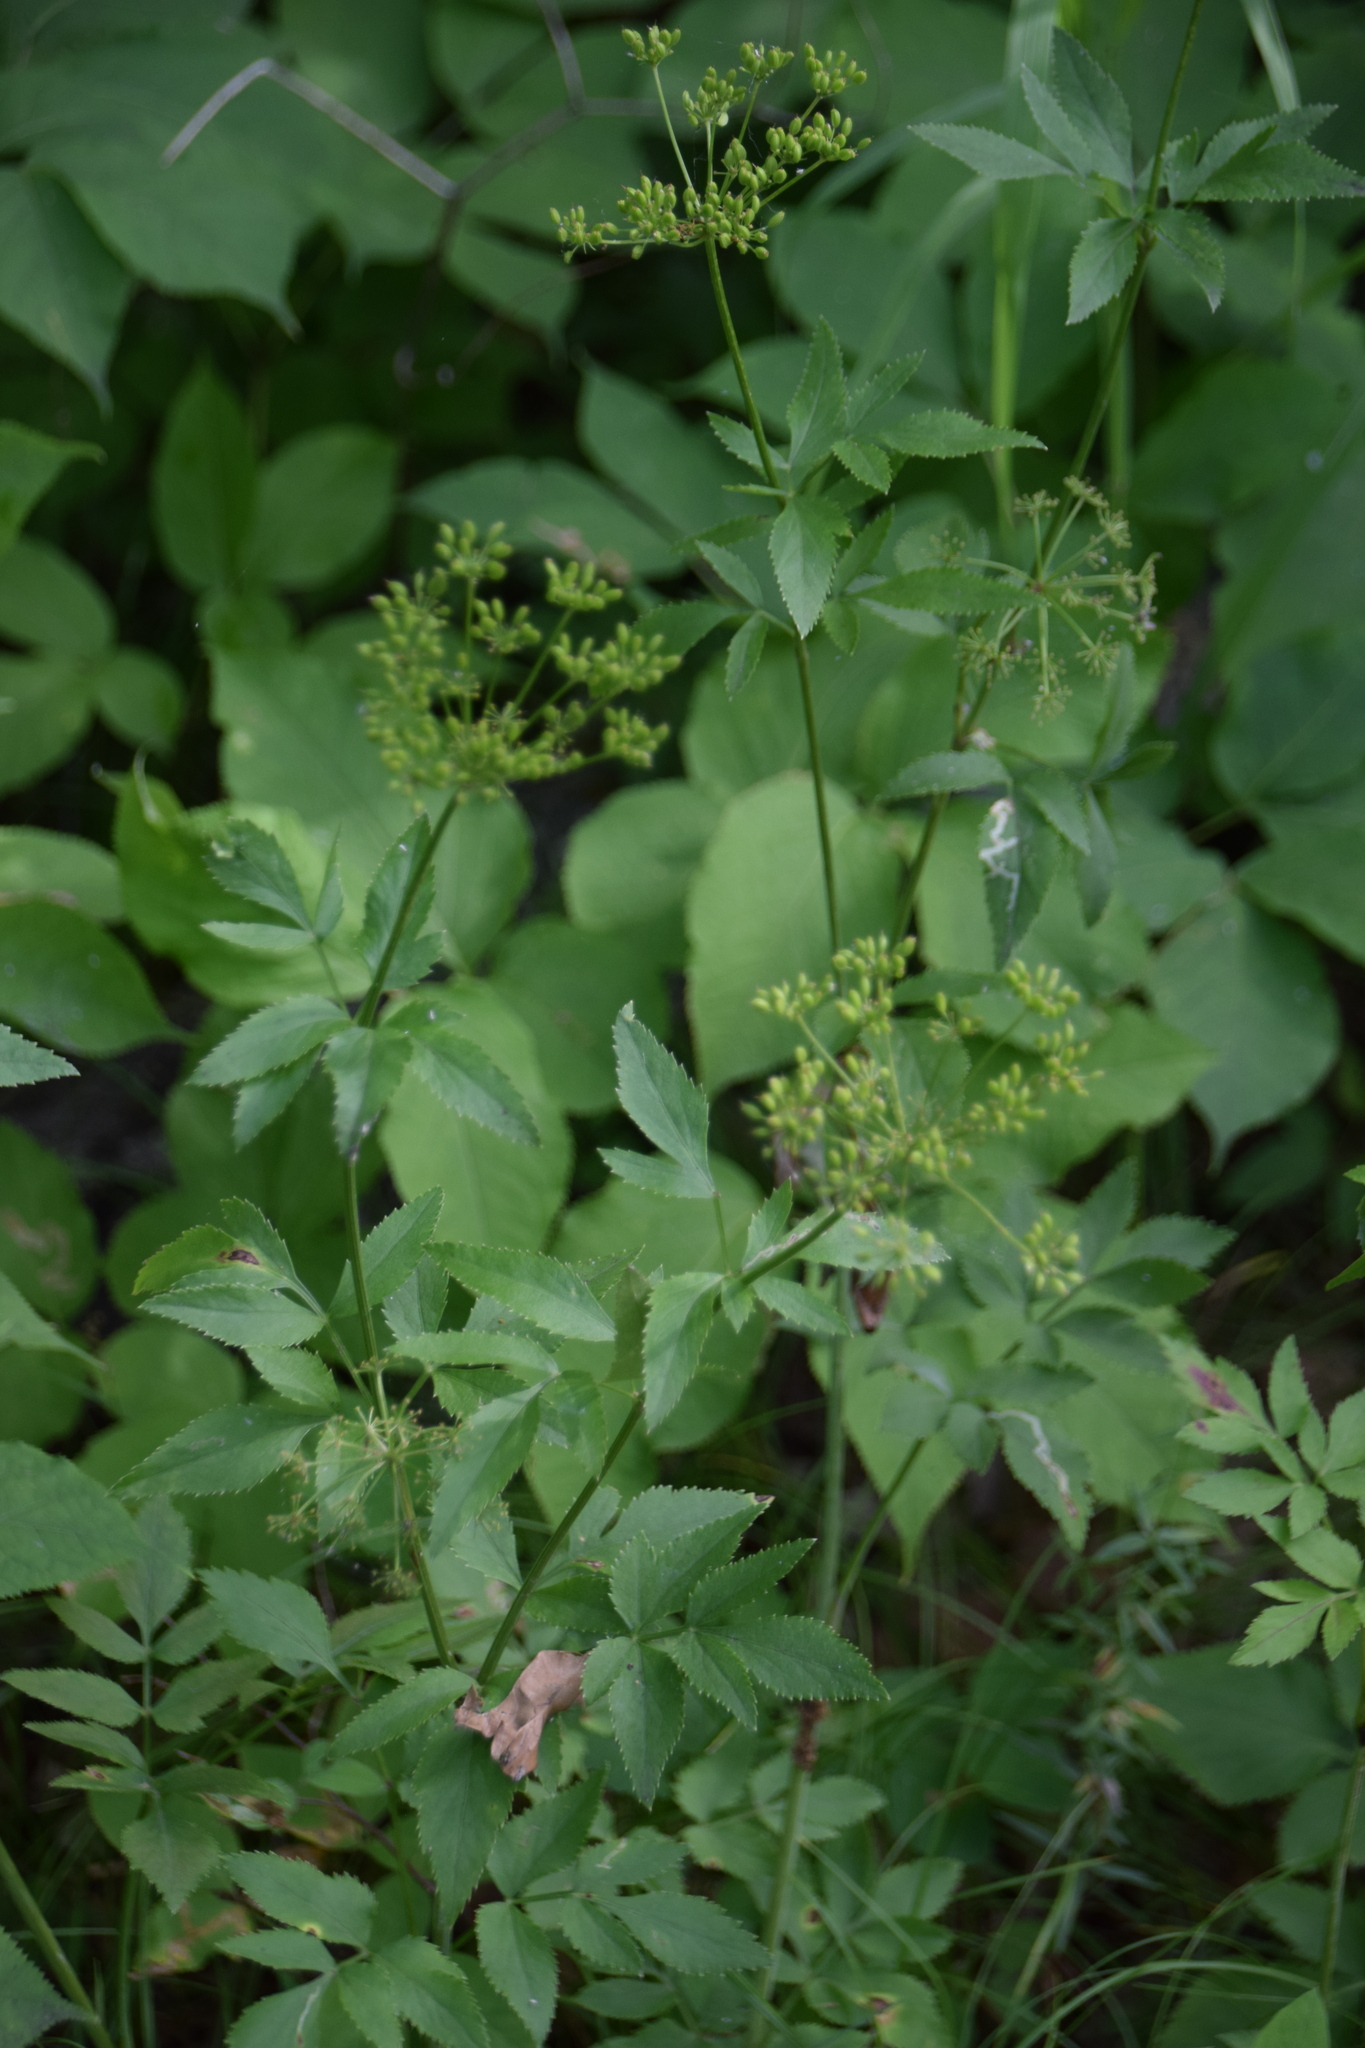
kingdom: Plantae
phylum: Tracheophyta
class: Magnoliopsida
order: Apiales
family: Apiaceae
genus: Zizia
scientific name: Zizia aurea
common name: Golden alexanders
